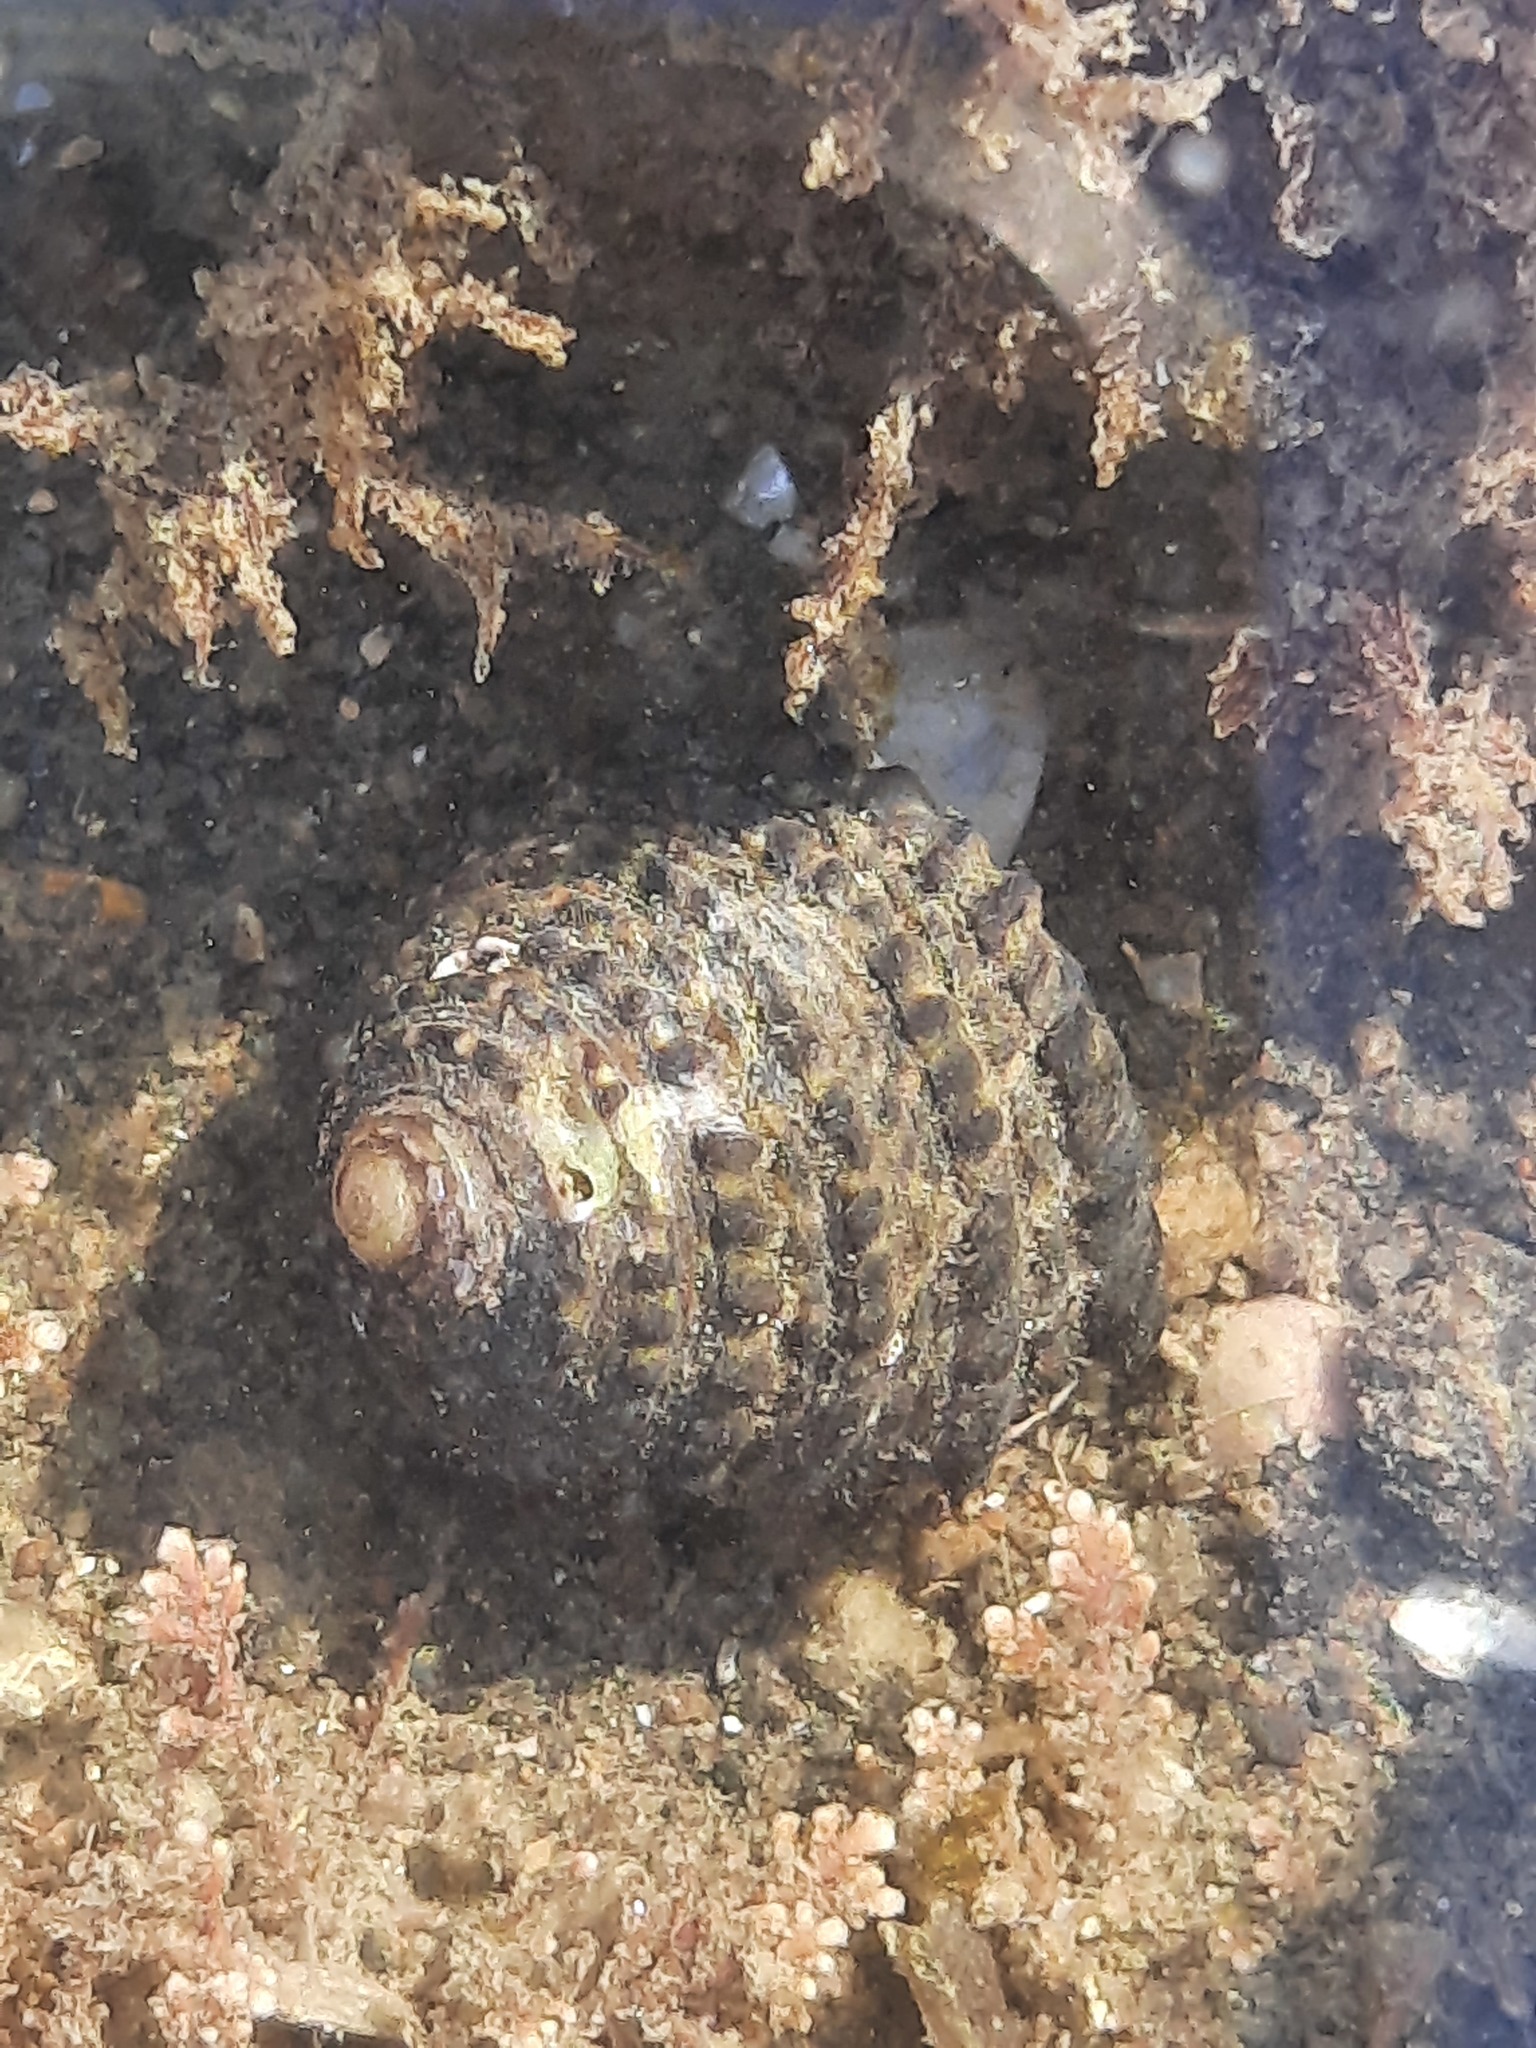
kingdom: Animalia
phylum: Mollusca
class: Gastropoda
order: Trochida
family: Trochidae
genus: Diloma
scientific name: Diloma bicanaliculatum
